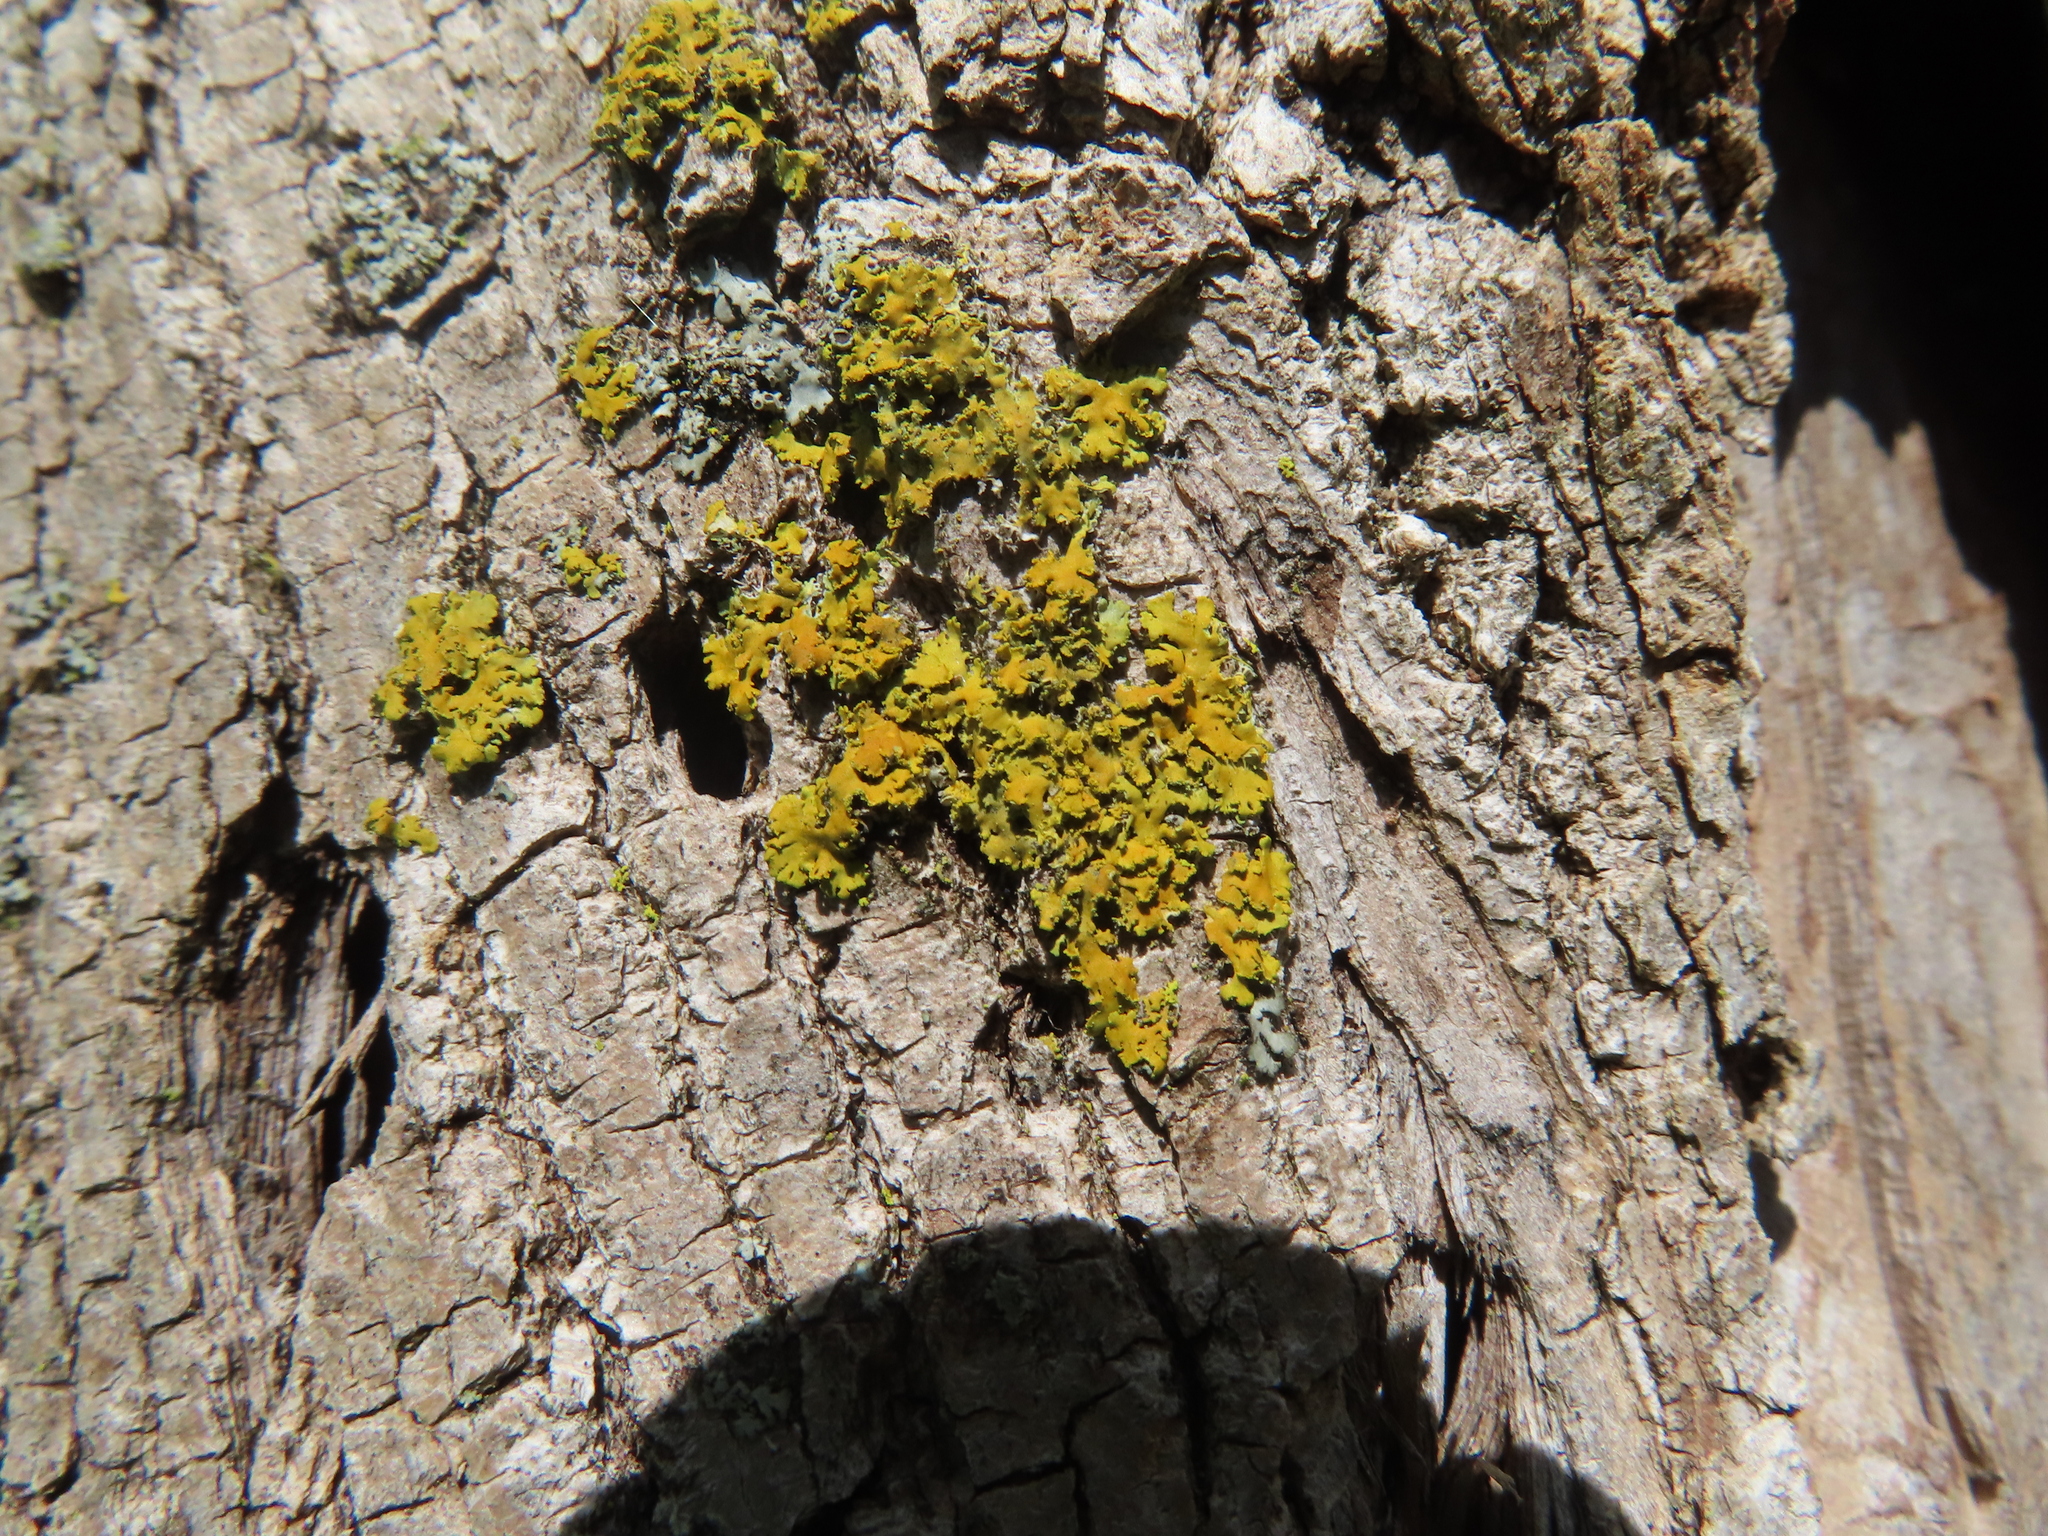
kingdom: Fungi
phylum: Ascomycota
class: Lecanoromycetes
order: Teloschistales
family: Teloschistaceae
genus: Xanthoria
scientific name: Xanthoria ulophyllodes
